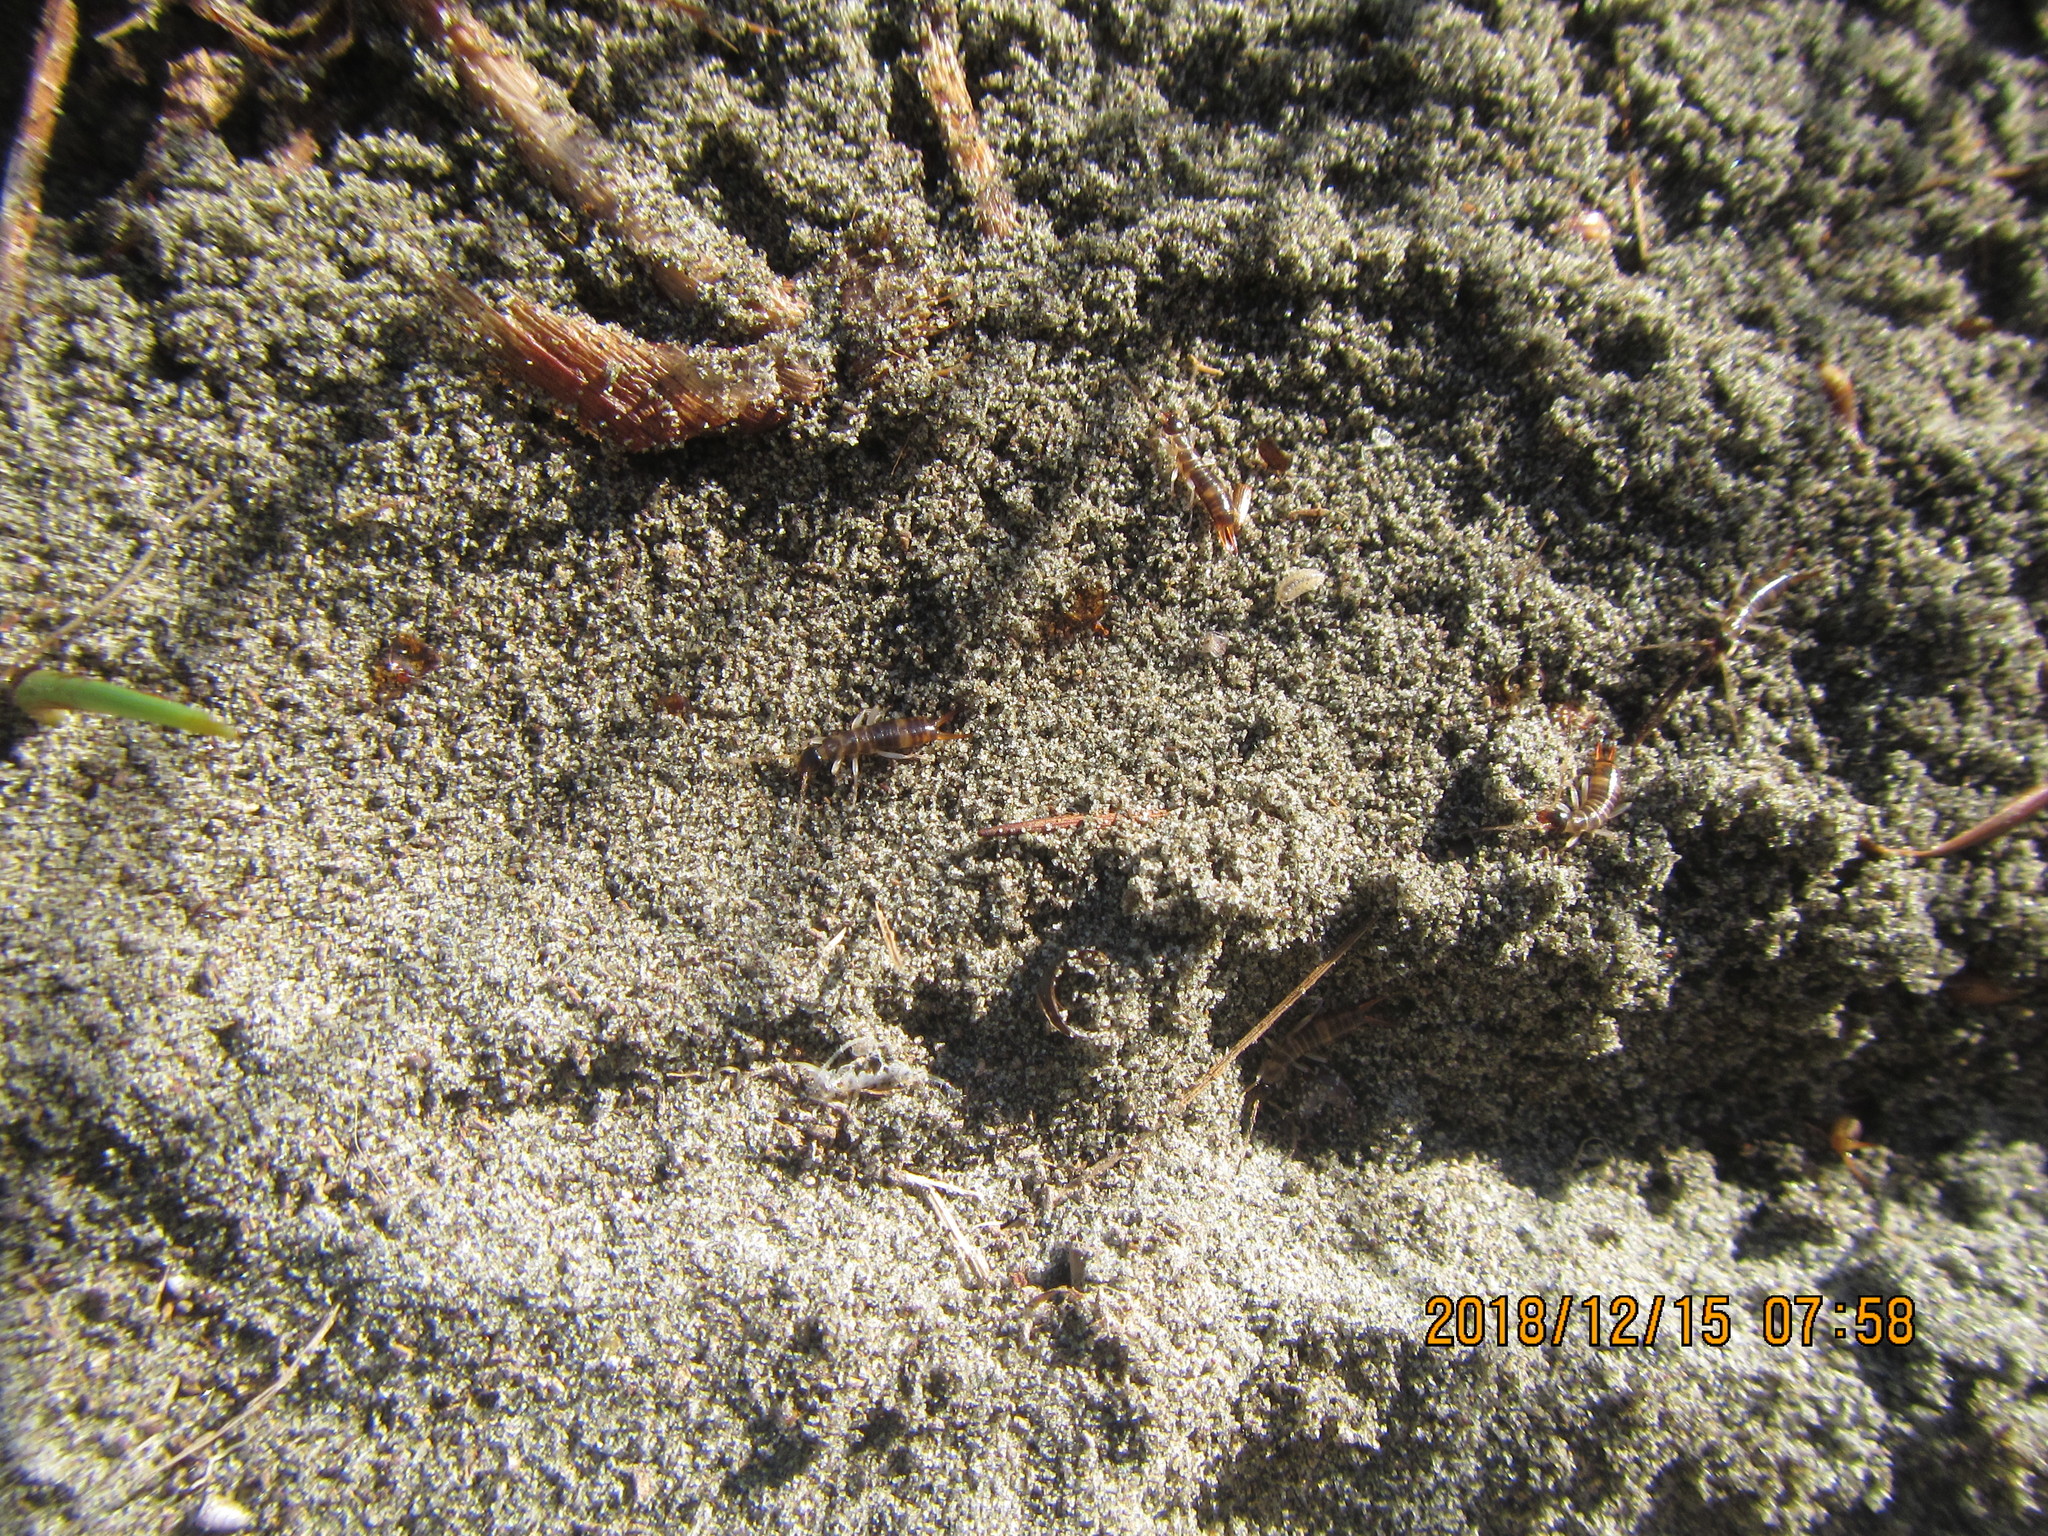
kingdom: Animalia
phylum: Arthropoda
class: Insecta
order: Dermaptera
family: Anisolabididae
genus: Anisolabis
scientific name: Anisolabis littorea
